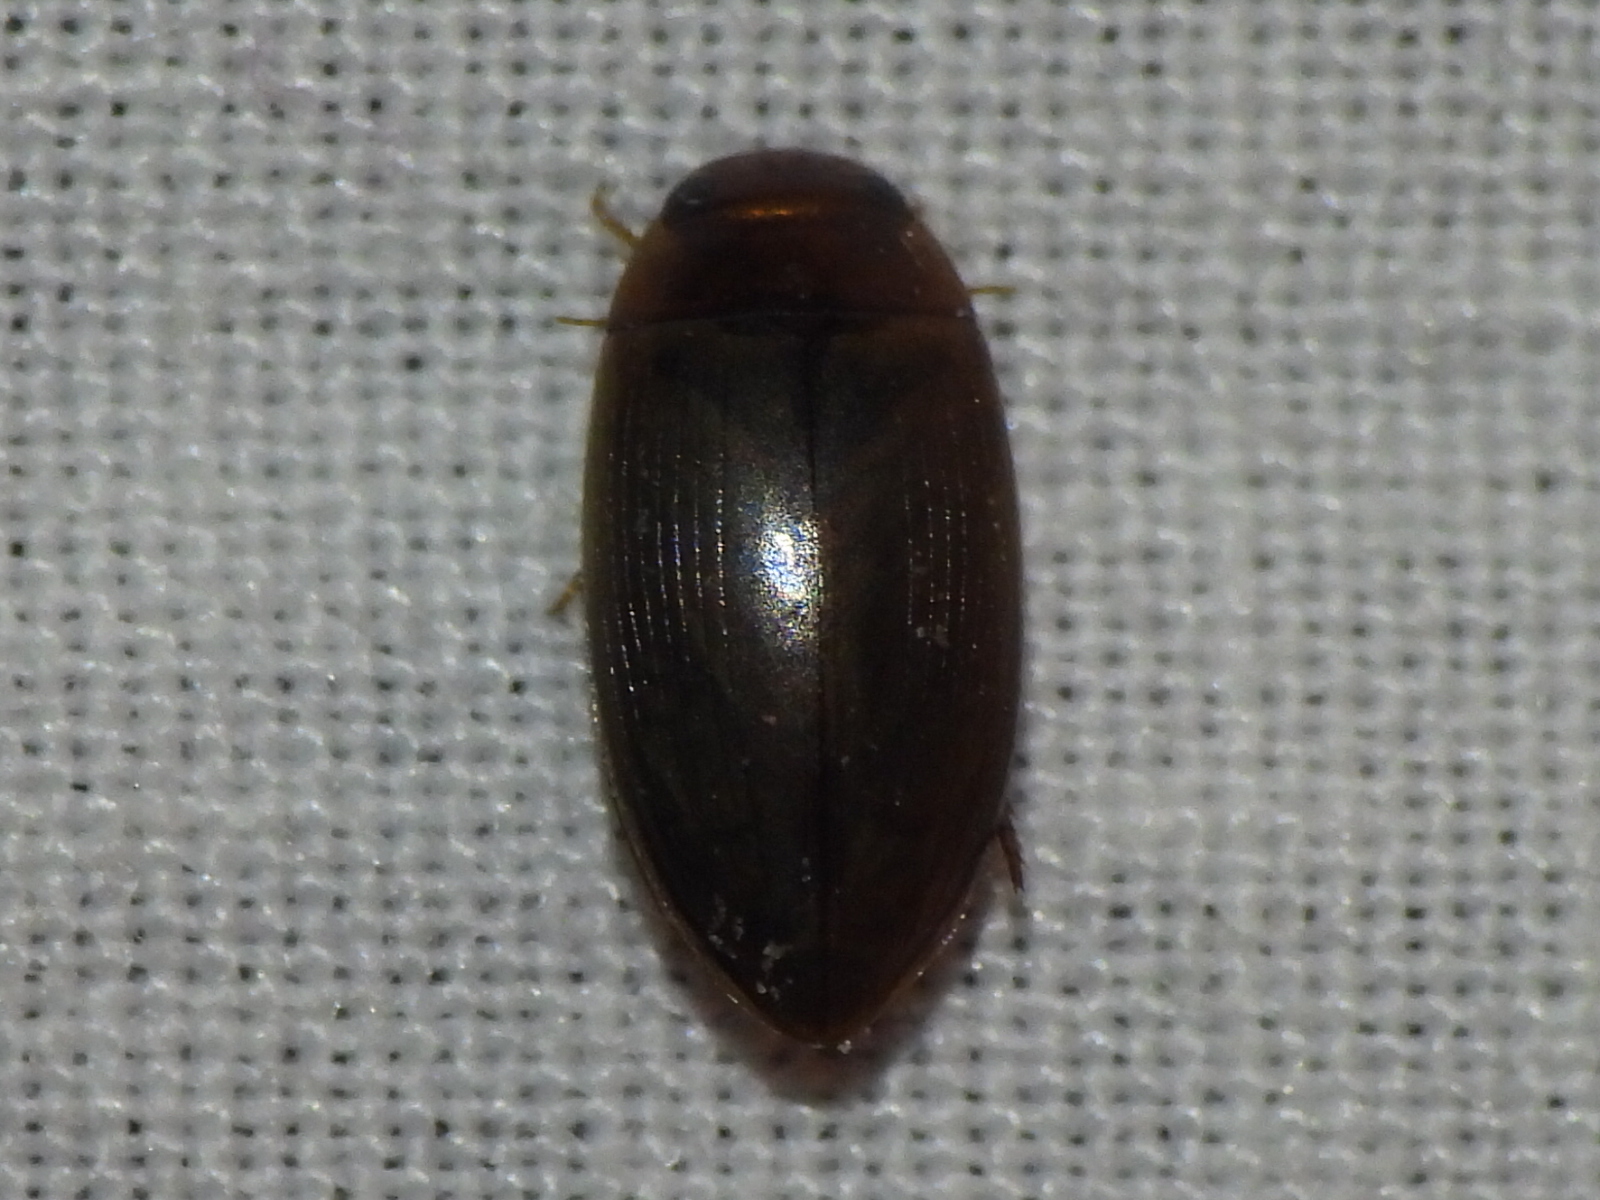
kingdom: Animalia
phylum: Arthropoda
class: Insecta
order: Coleoptera
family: Dytiscidae
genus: Copelatus
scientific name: Copelatus chevrolati
